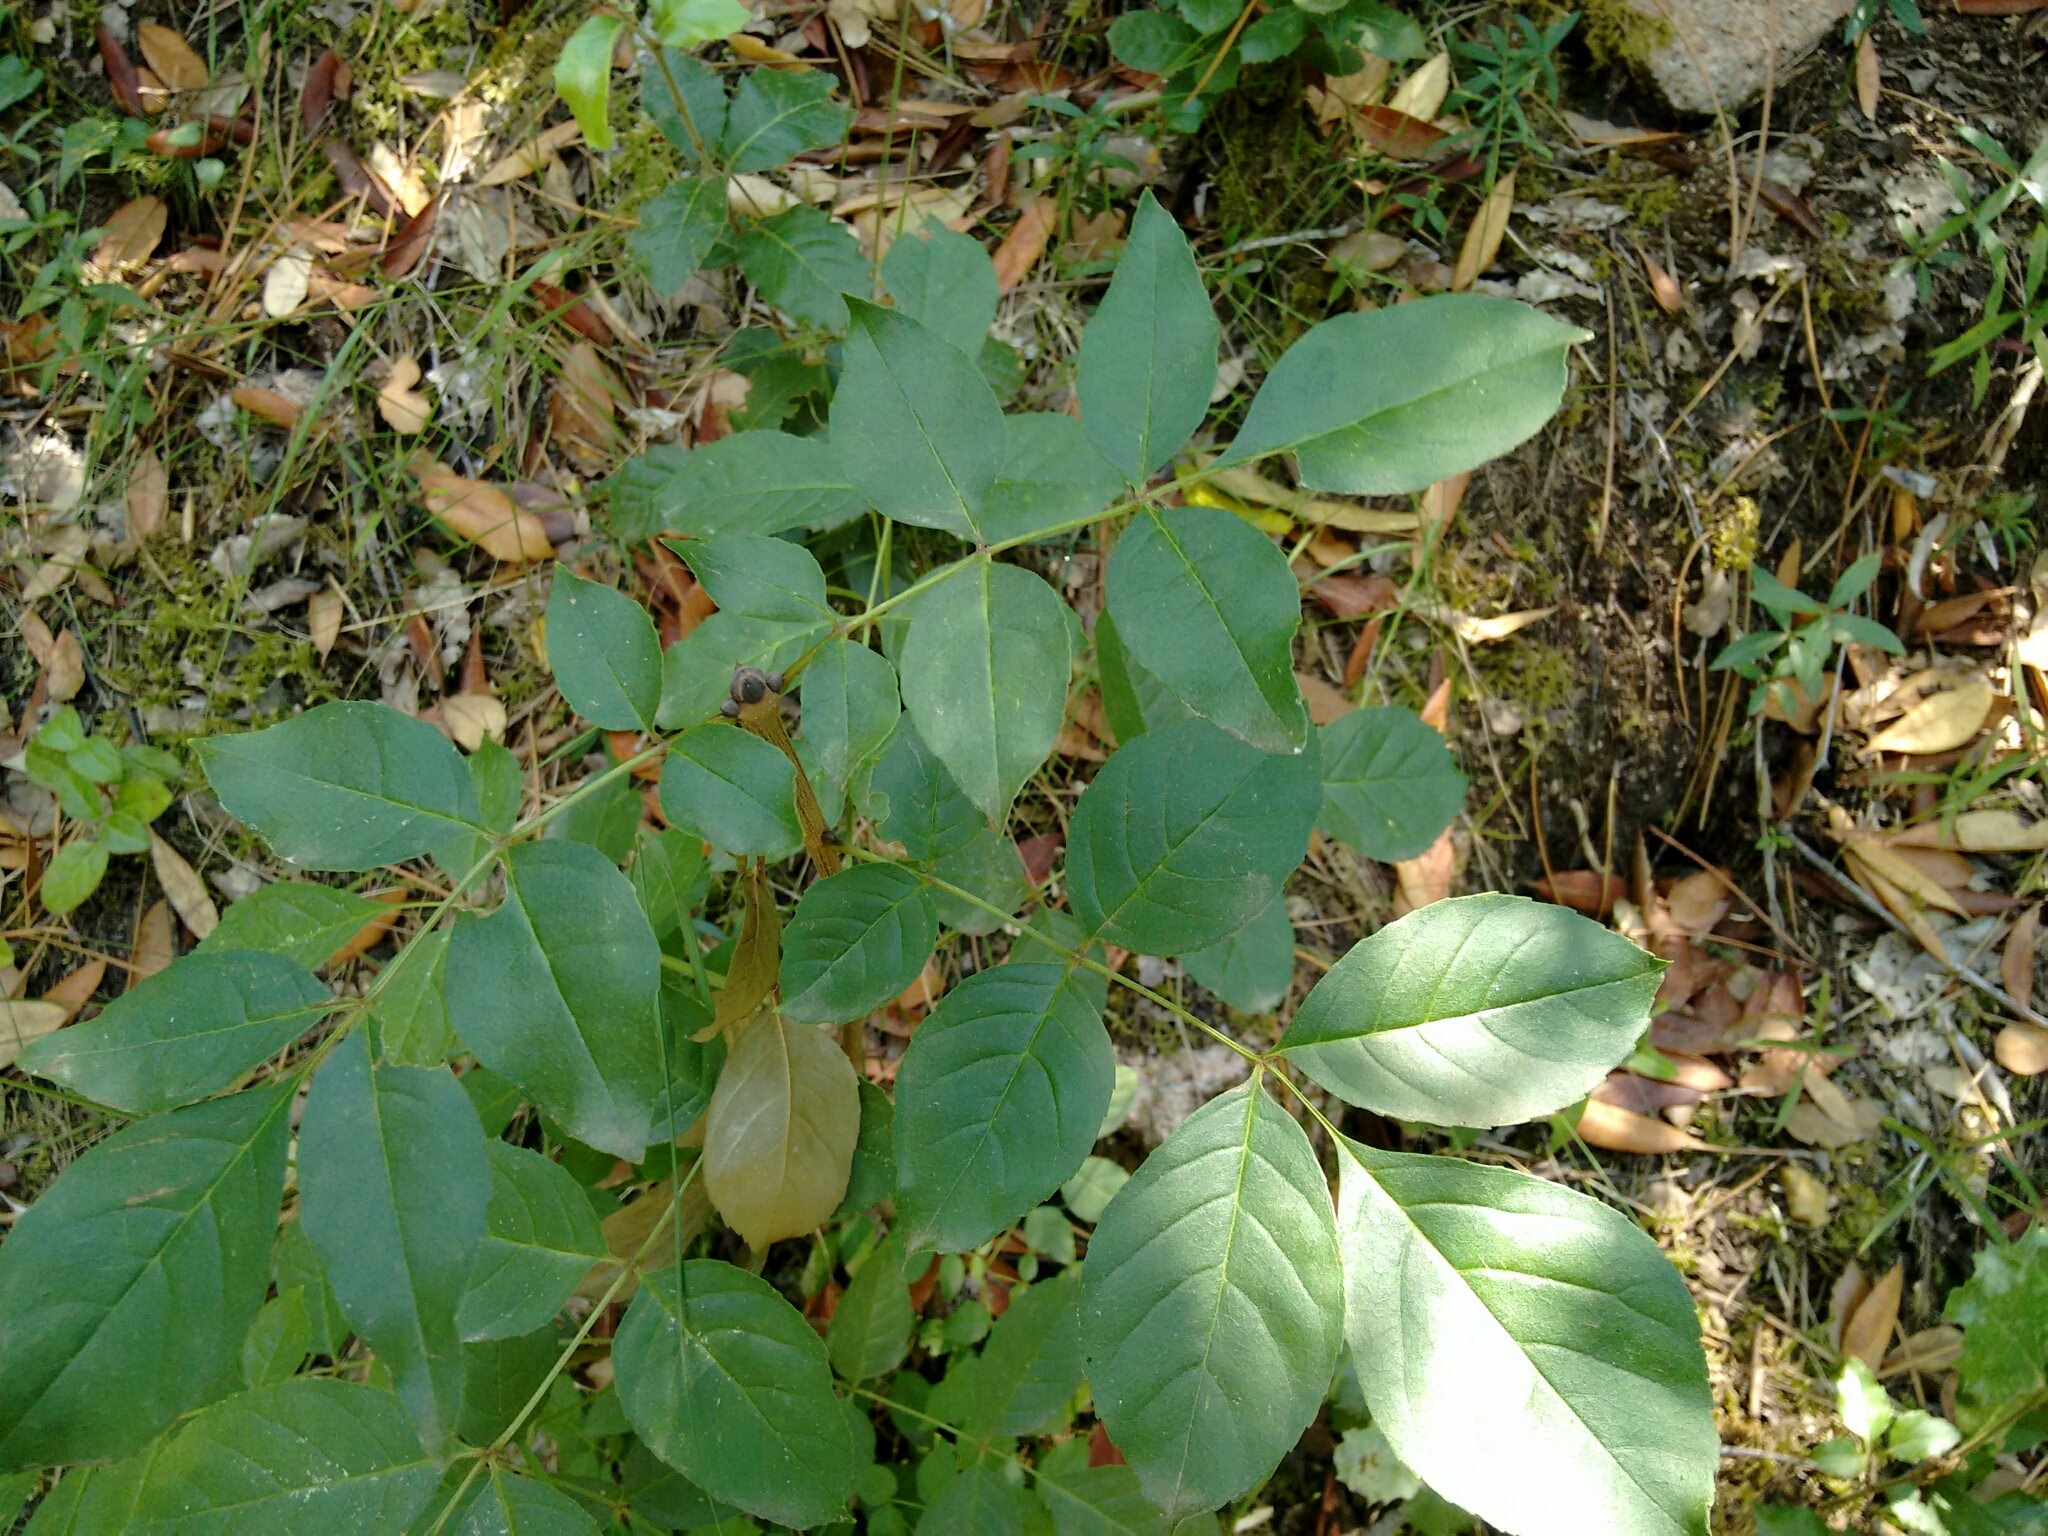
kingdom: Plantae
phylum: Tracheophyta
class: Magnoliopsida
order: Lamiales
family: Oleaceae
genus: Fraxinus
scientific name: Fraxinus ornus
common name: Manna ash
